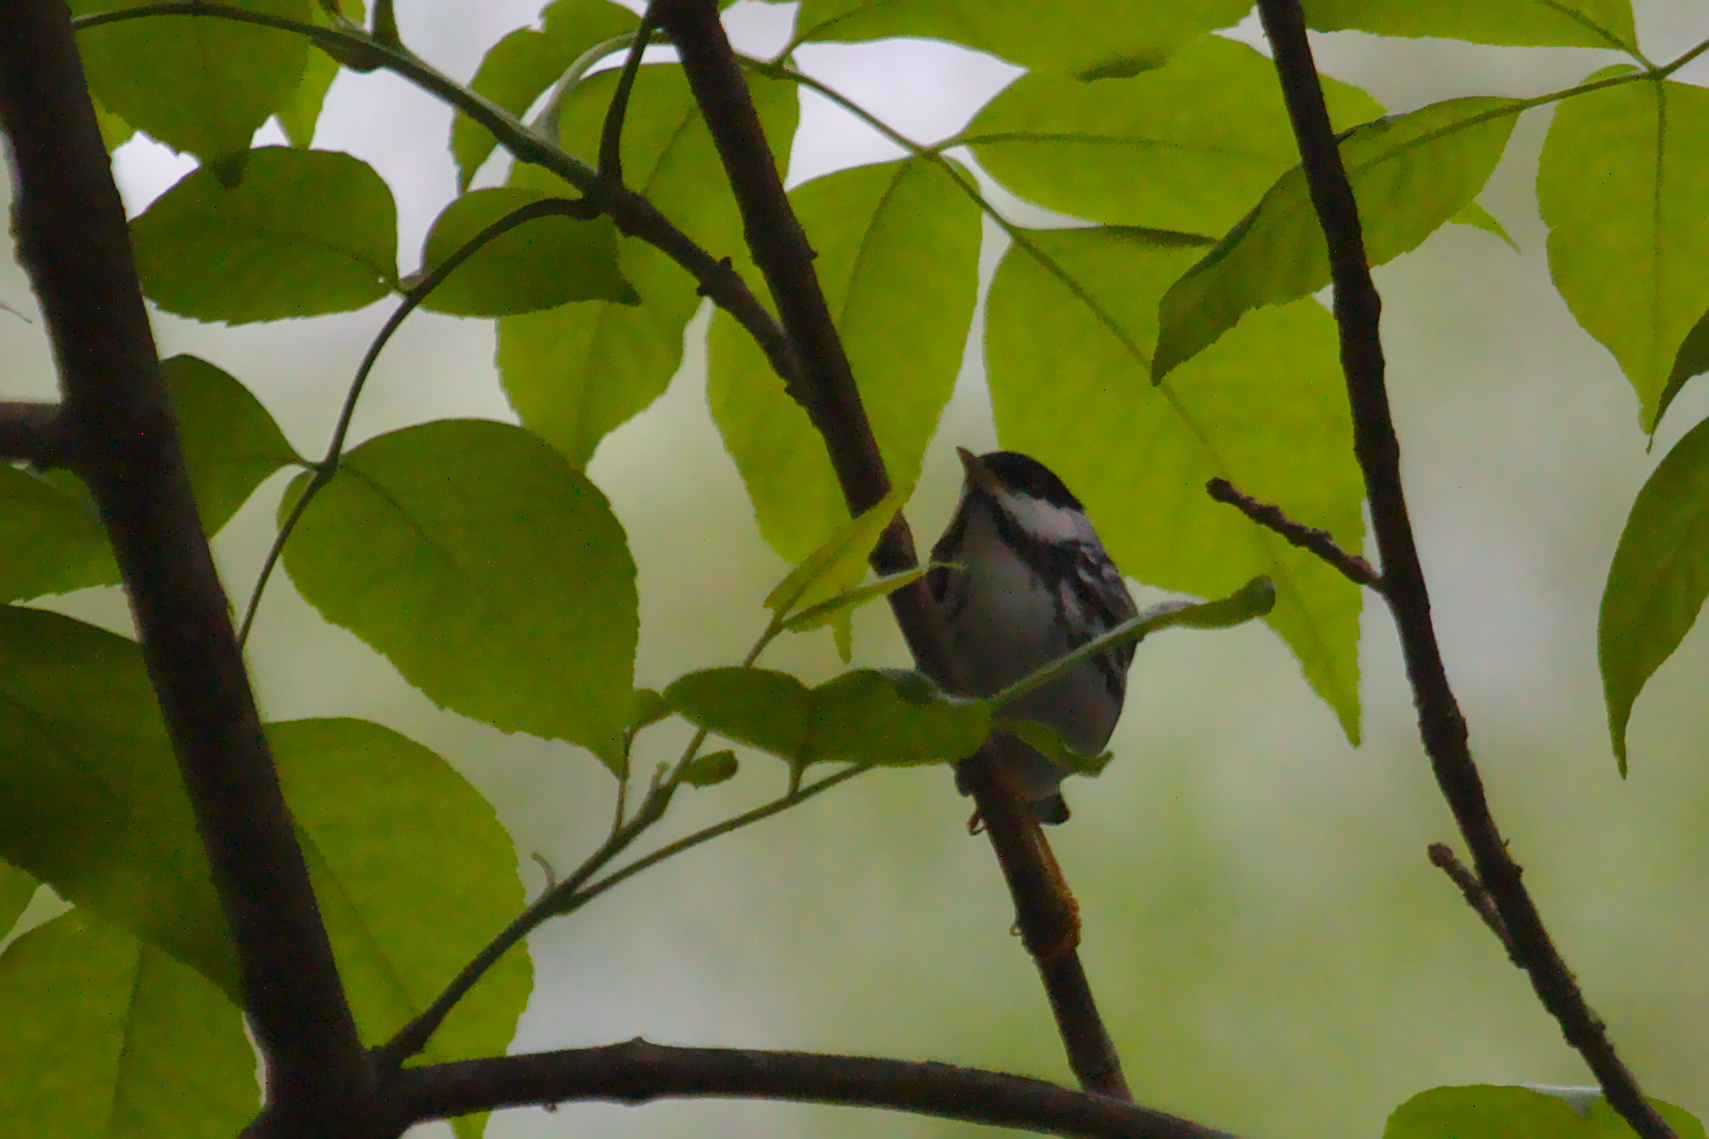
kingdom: Animalia
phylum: Chordata
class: Aves
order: Passeriformes
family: Parulidae
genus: Setophaga
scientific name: Setophaga striata
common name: Blackpoll warbler
